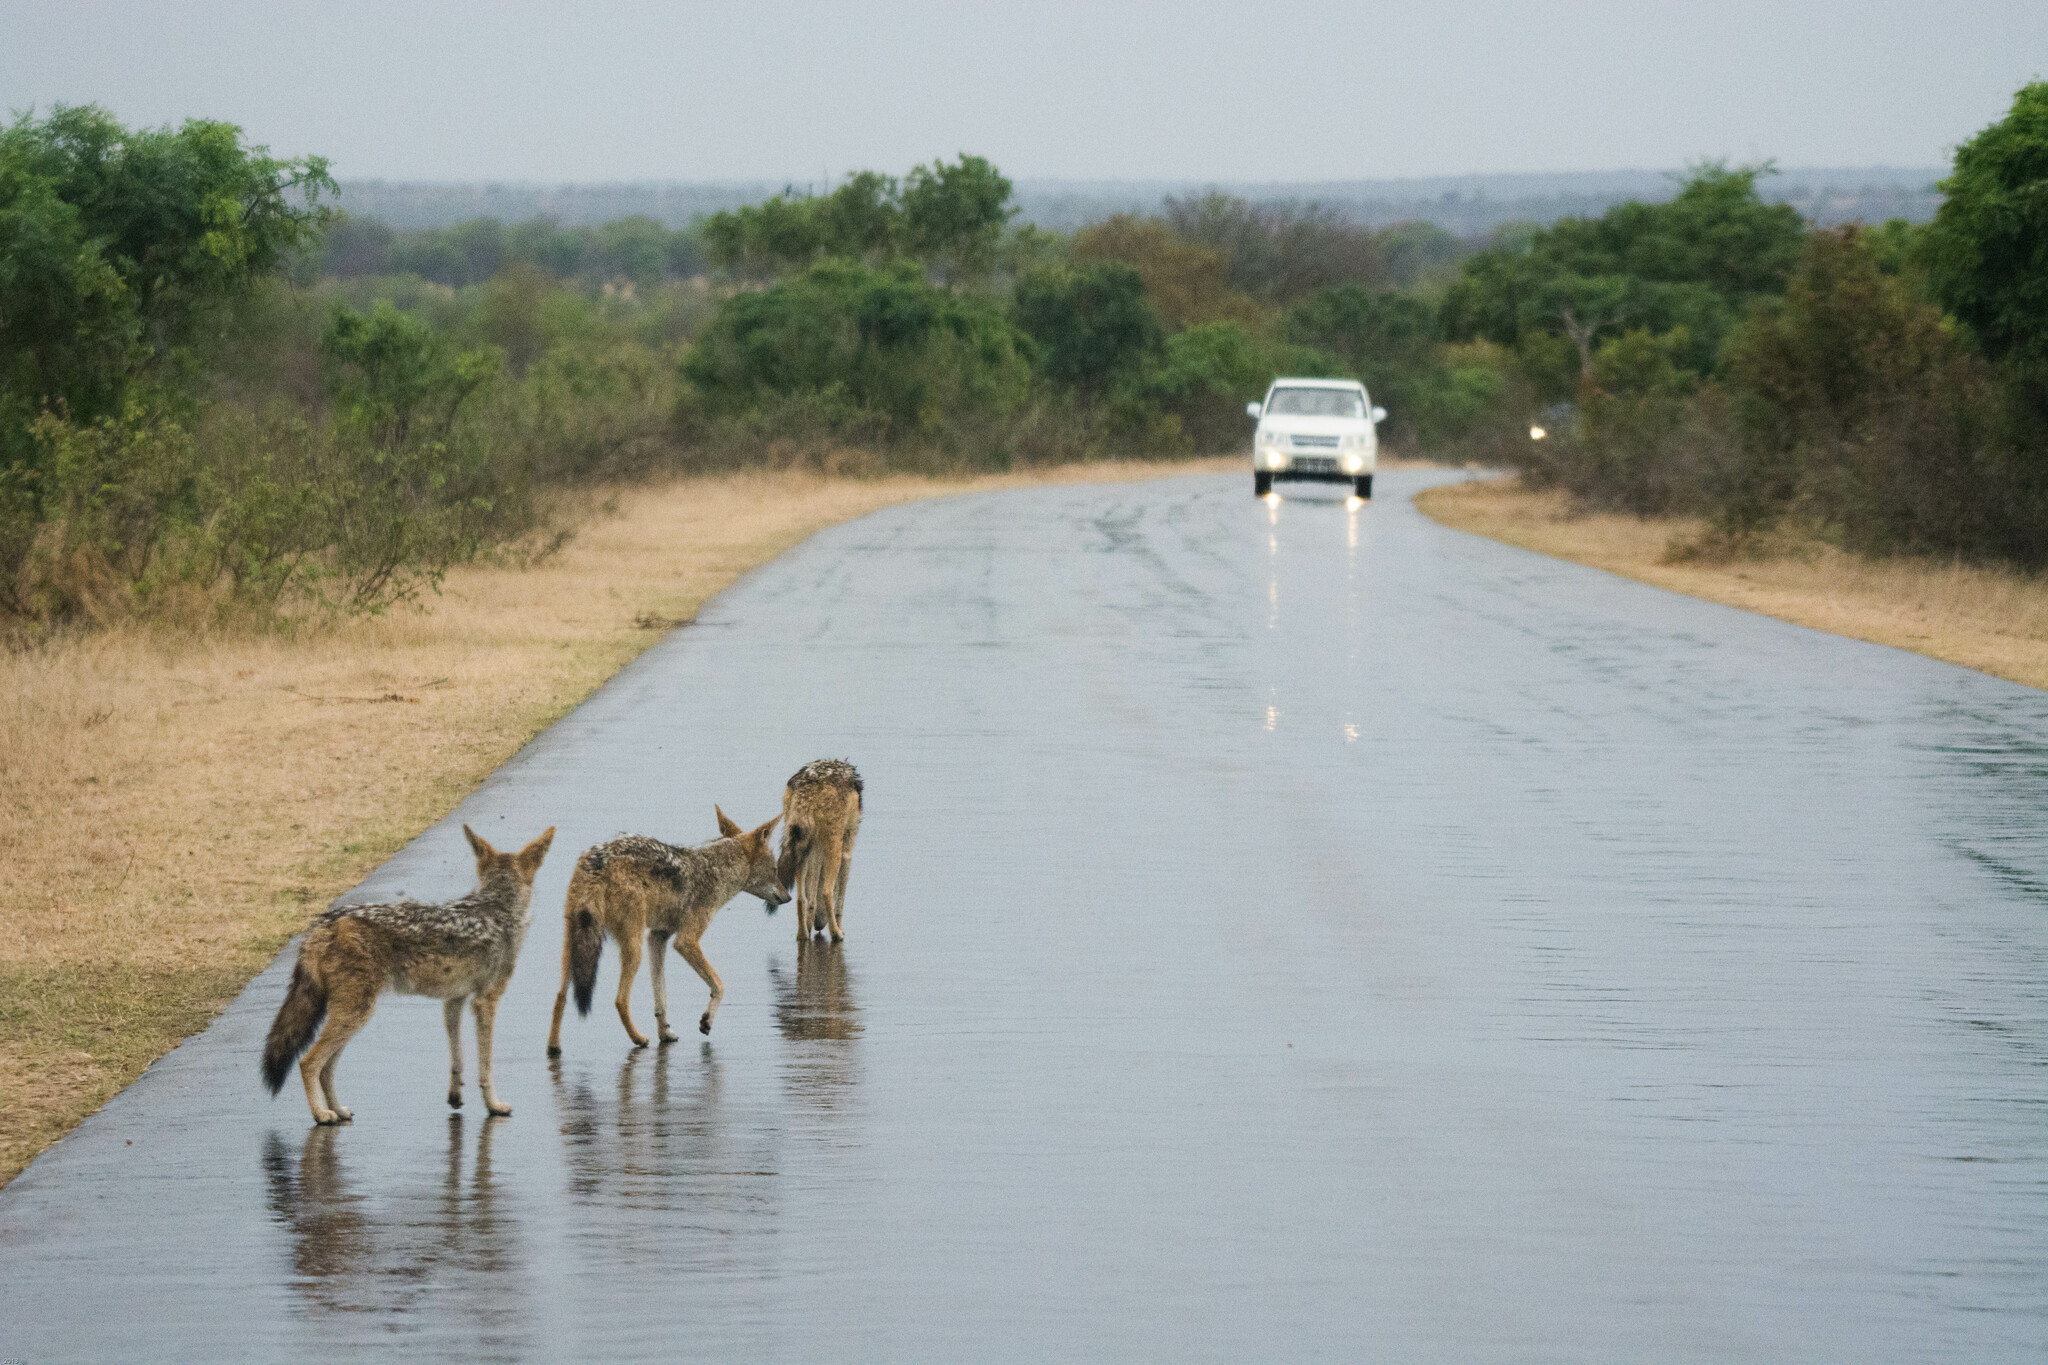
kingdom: Animalia
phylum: Chordata
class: Mammalia
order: Carnivora
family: Canidae
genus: Lupulella
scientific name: Lupulella
